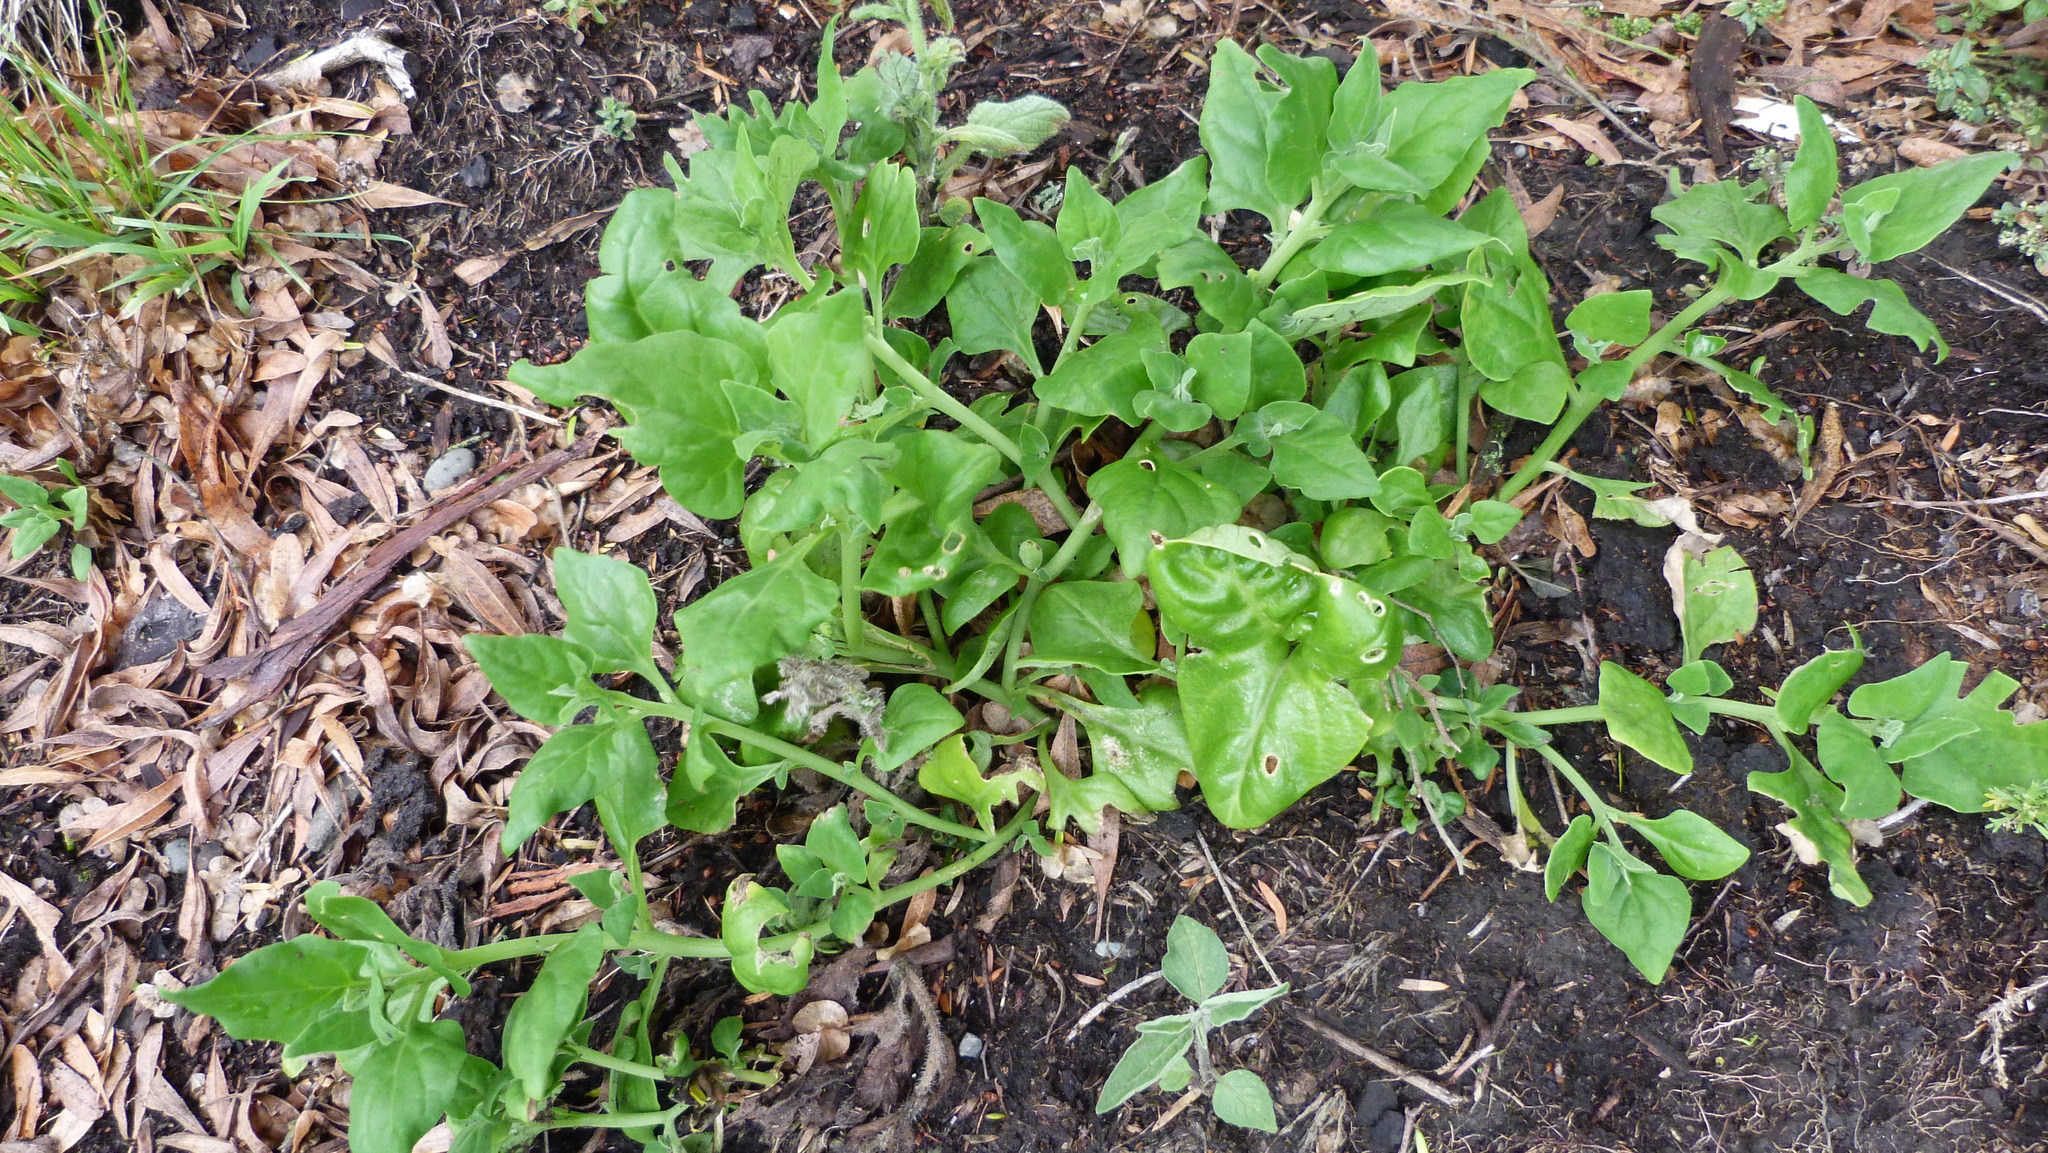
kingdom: Plantae
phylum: Tracheophyta
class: Magnoliopsida
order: Caryophyllales
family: Aizoaceae
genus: Tetragonia
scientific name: Tetragonia tetragonoides
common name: New zealand-spinach
